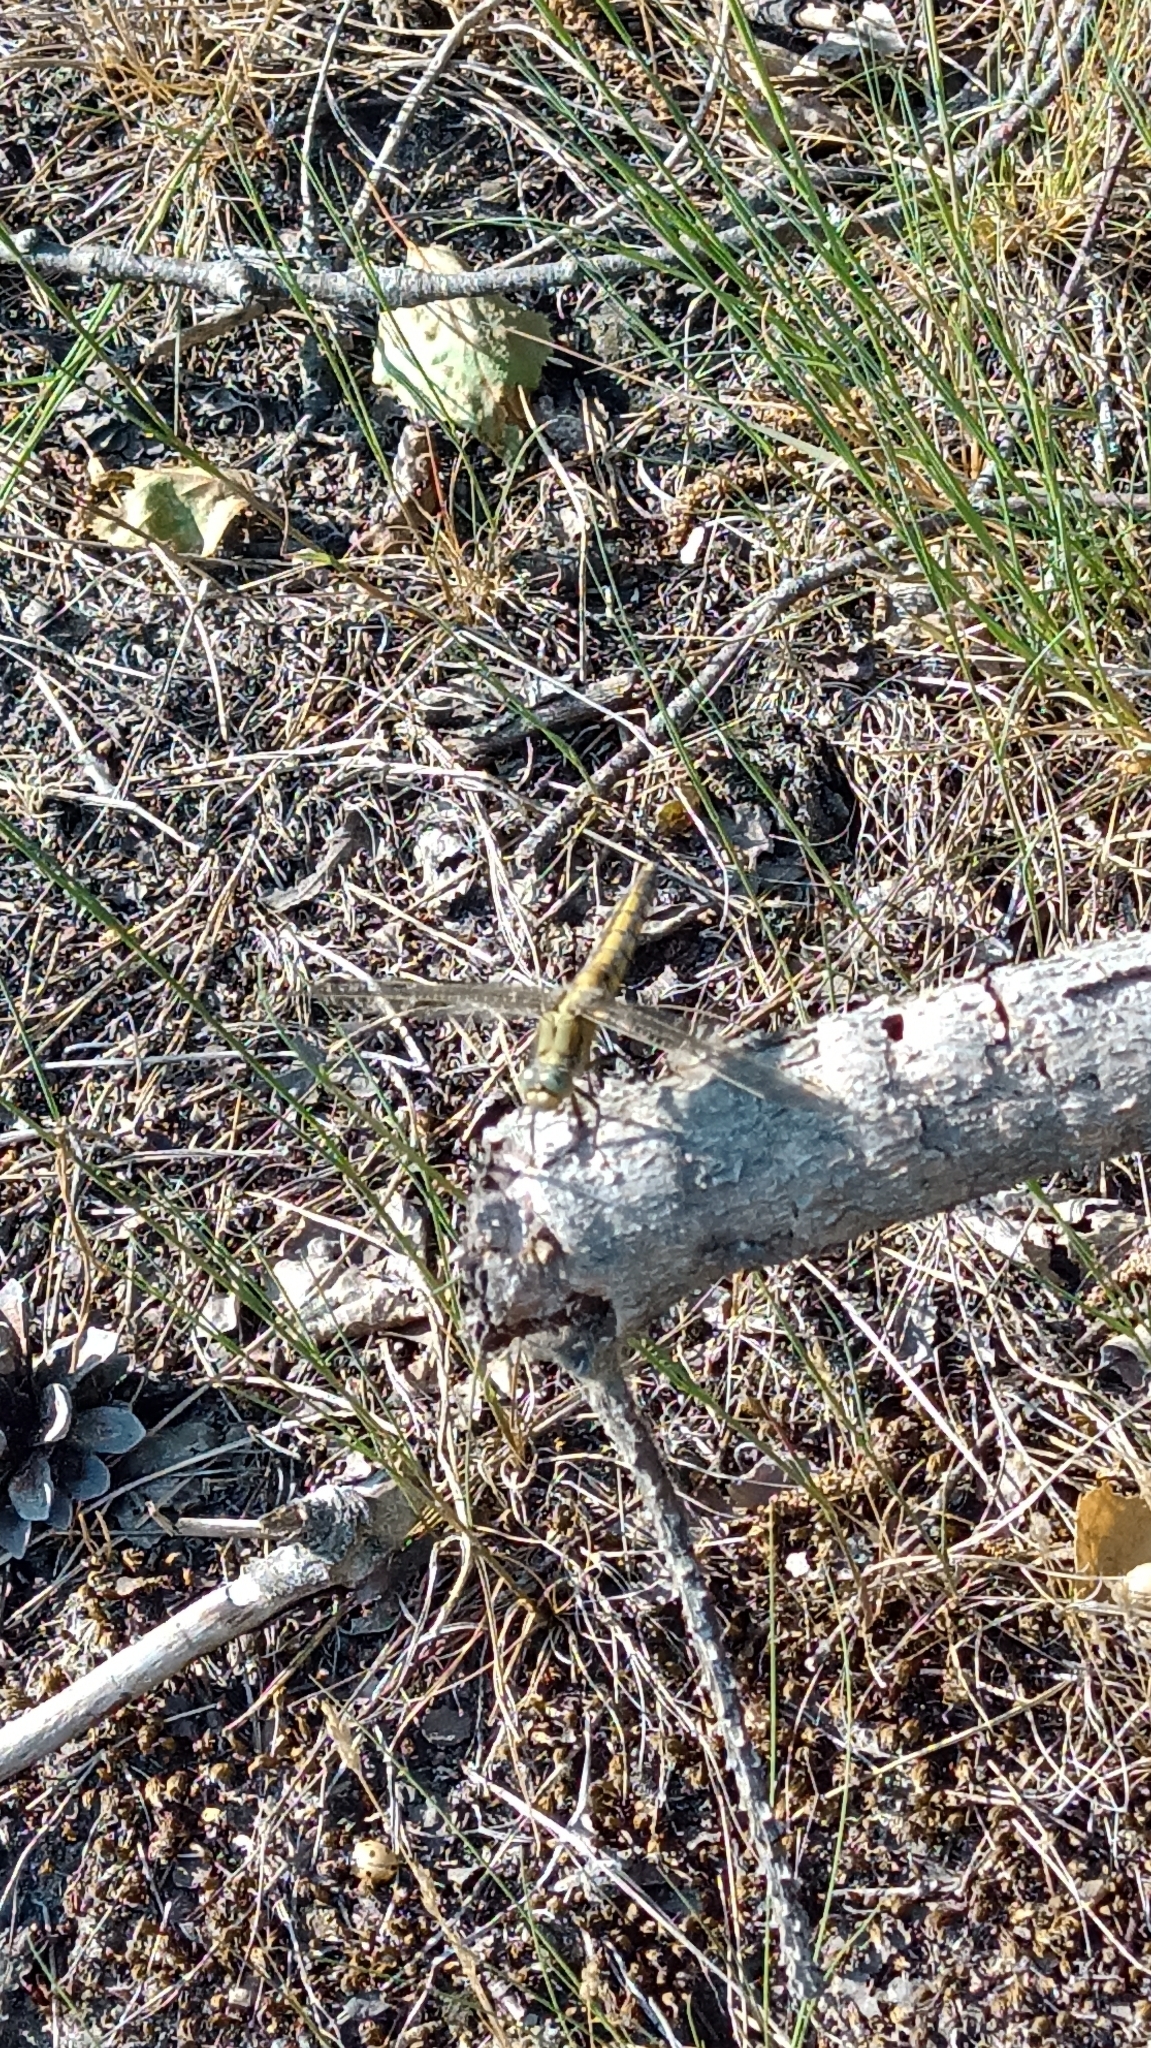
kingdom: Animalia
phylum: Arthropoda
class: Insecta
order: Odonata
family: Libellulidae
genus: Orthetrum
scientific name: Orthetrum cancellatum
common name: Black-tailed skimmer
